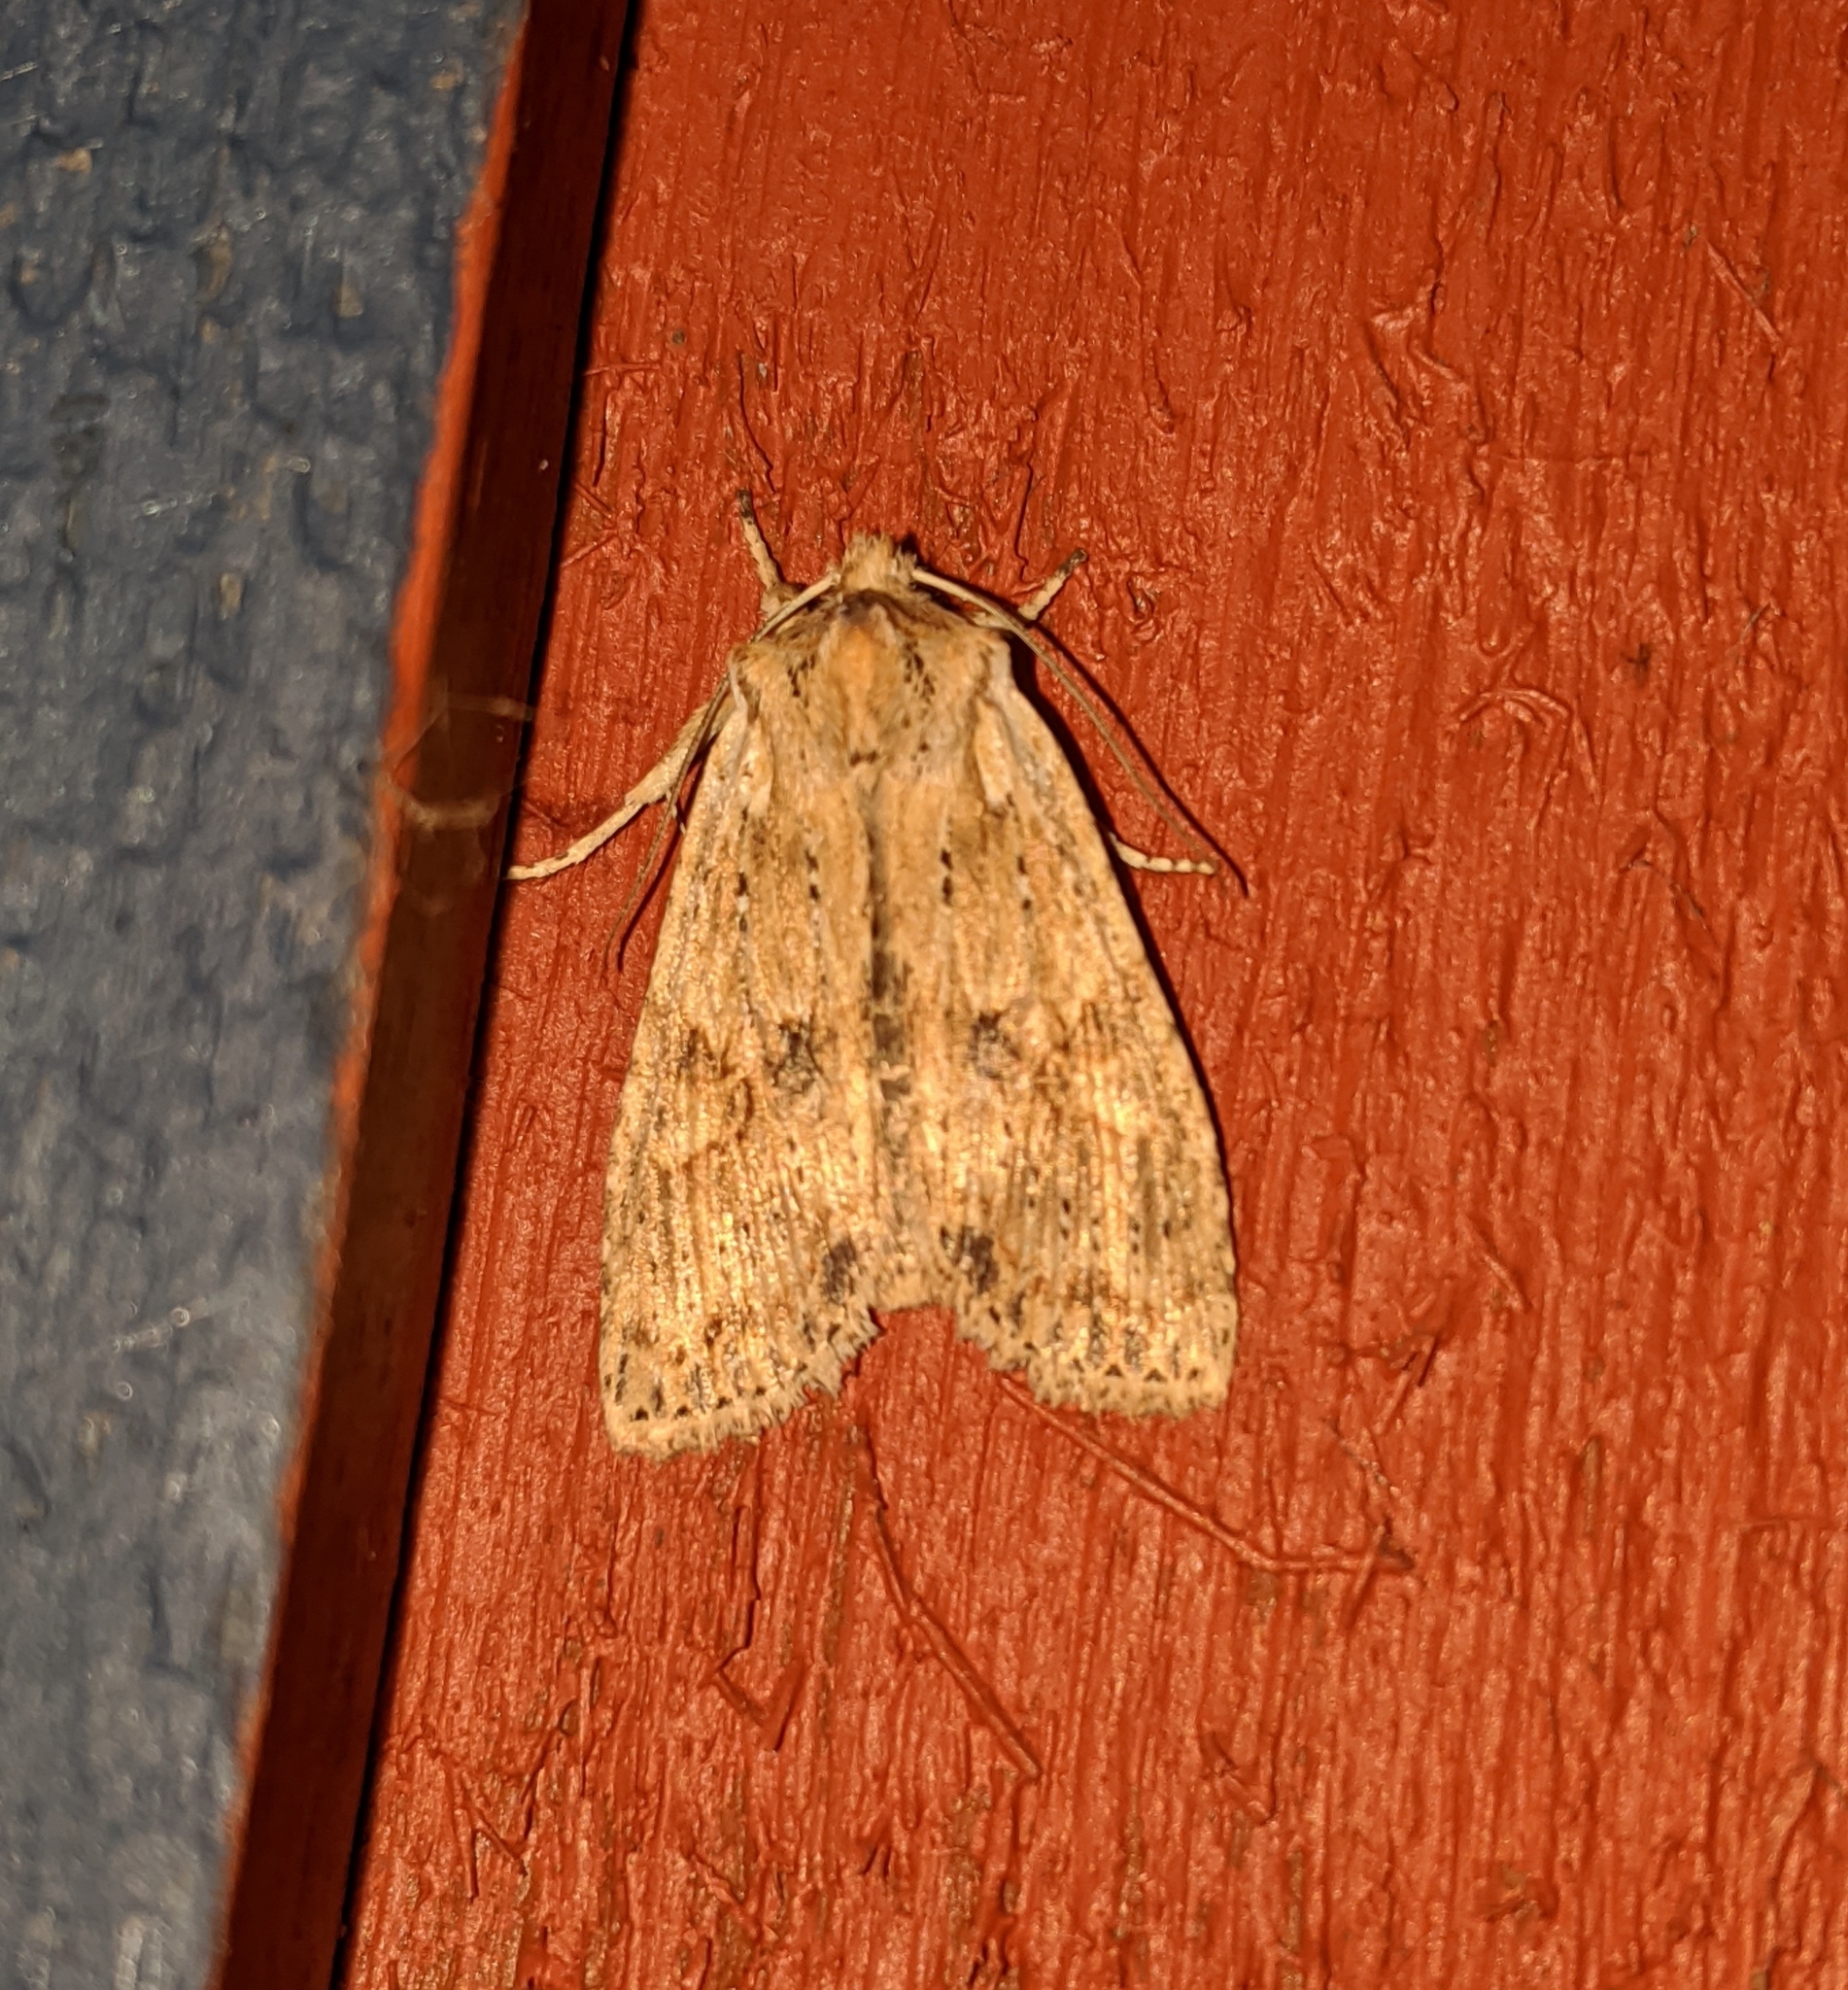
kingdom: Animalia
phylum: Arthropoda
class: Insecta
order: Lepidoptera
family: Noctuidae
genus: Lithophane
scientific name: Lithophane innominata
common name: Nameless pinion moth
